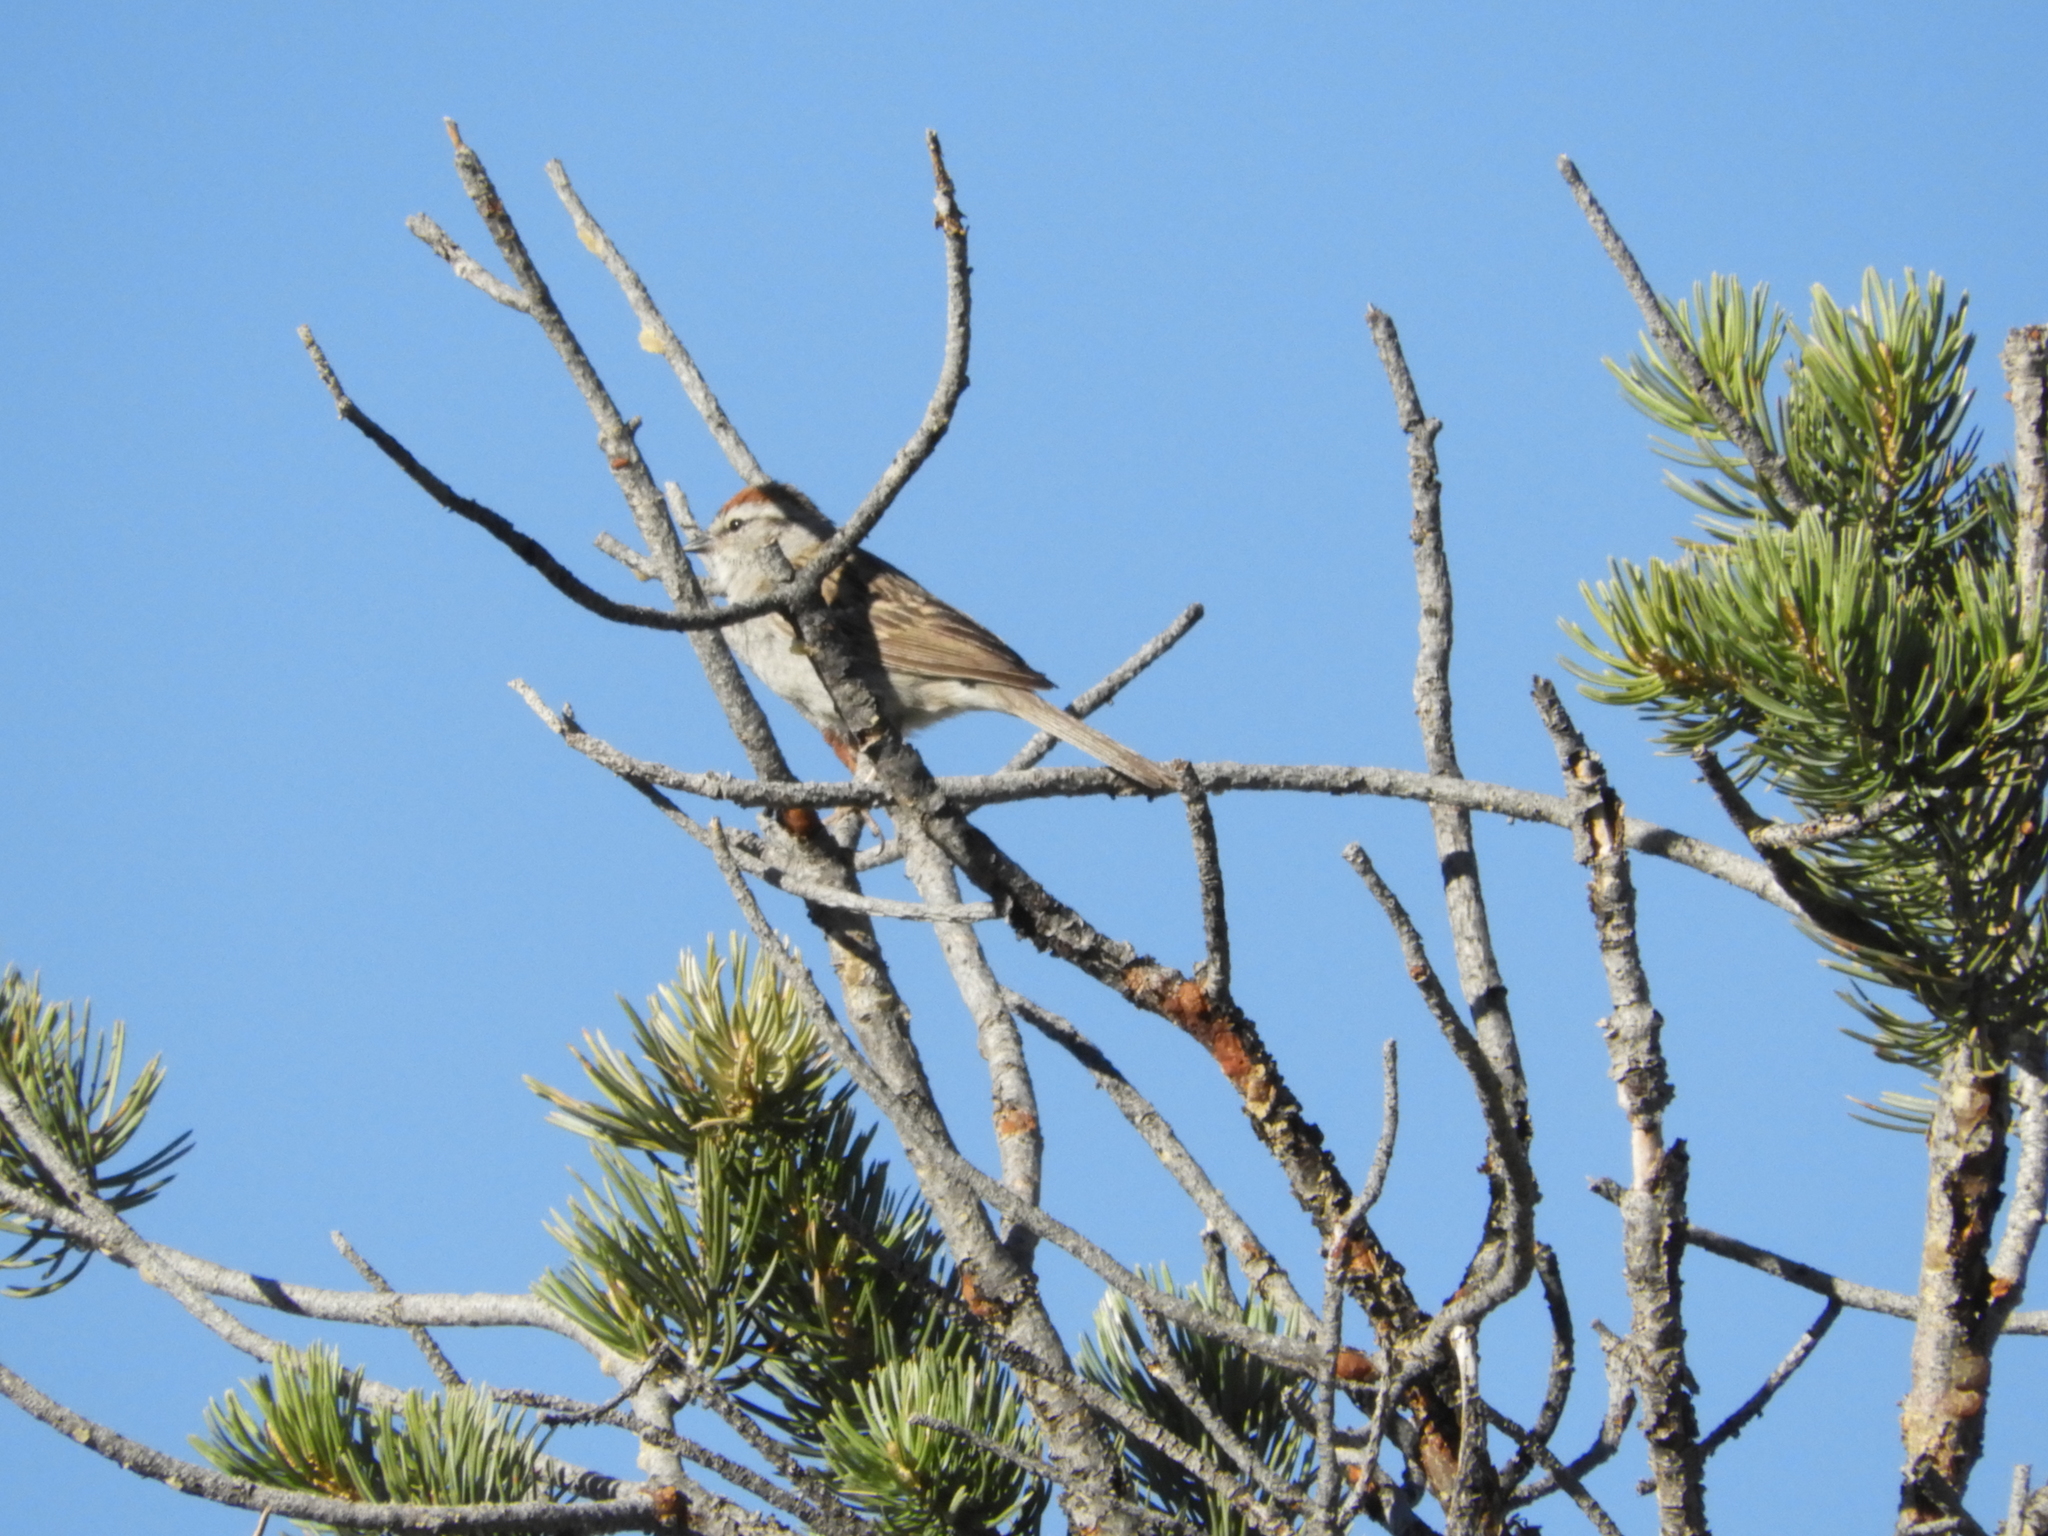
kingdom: Animalia
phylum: Chordata
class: Aves
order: Passeriformes
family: Passerellidae
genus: Spizella
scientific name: Spizella passerina
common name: Chipping sparrow
